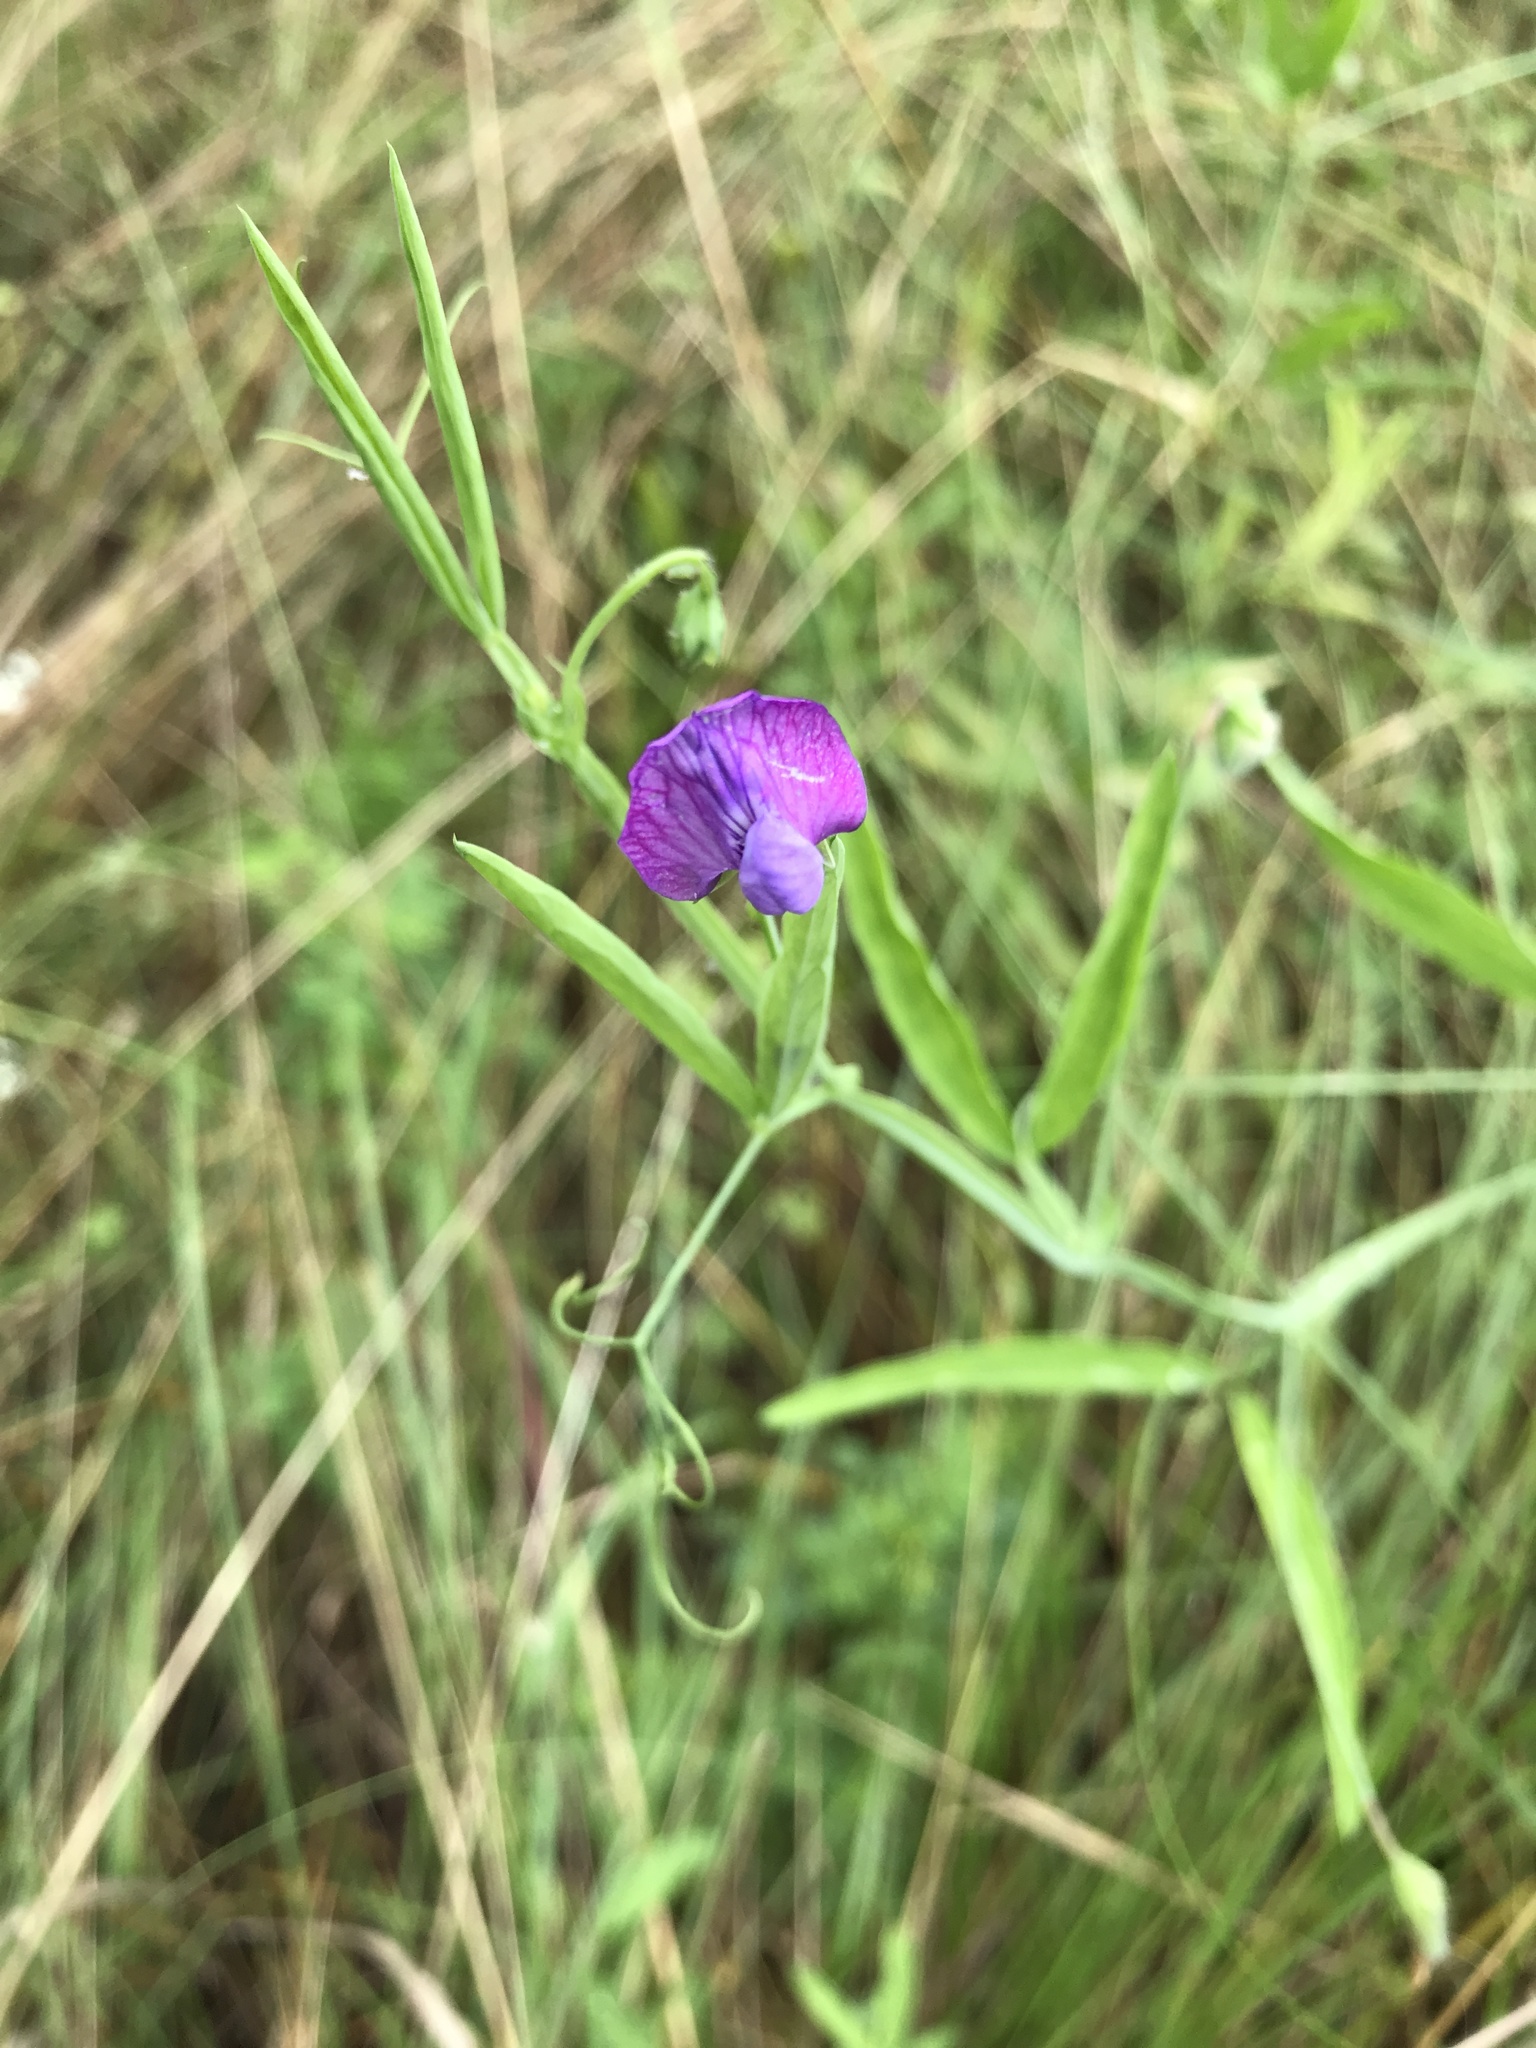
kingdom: Plantae
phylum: Tracheophyta
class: Magnoliopsida
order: Fabales
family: Fabaceae
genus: Lathyrus
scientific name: Lathyrus hirsutus
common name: Hairy vetchling
